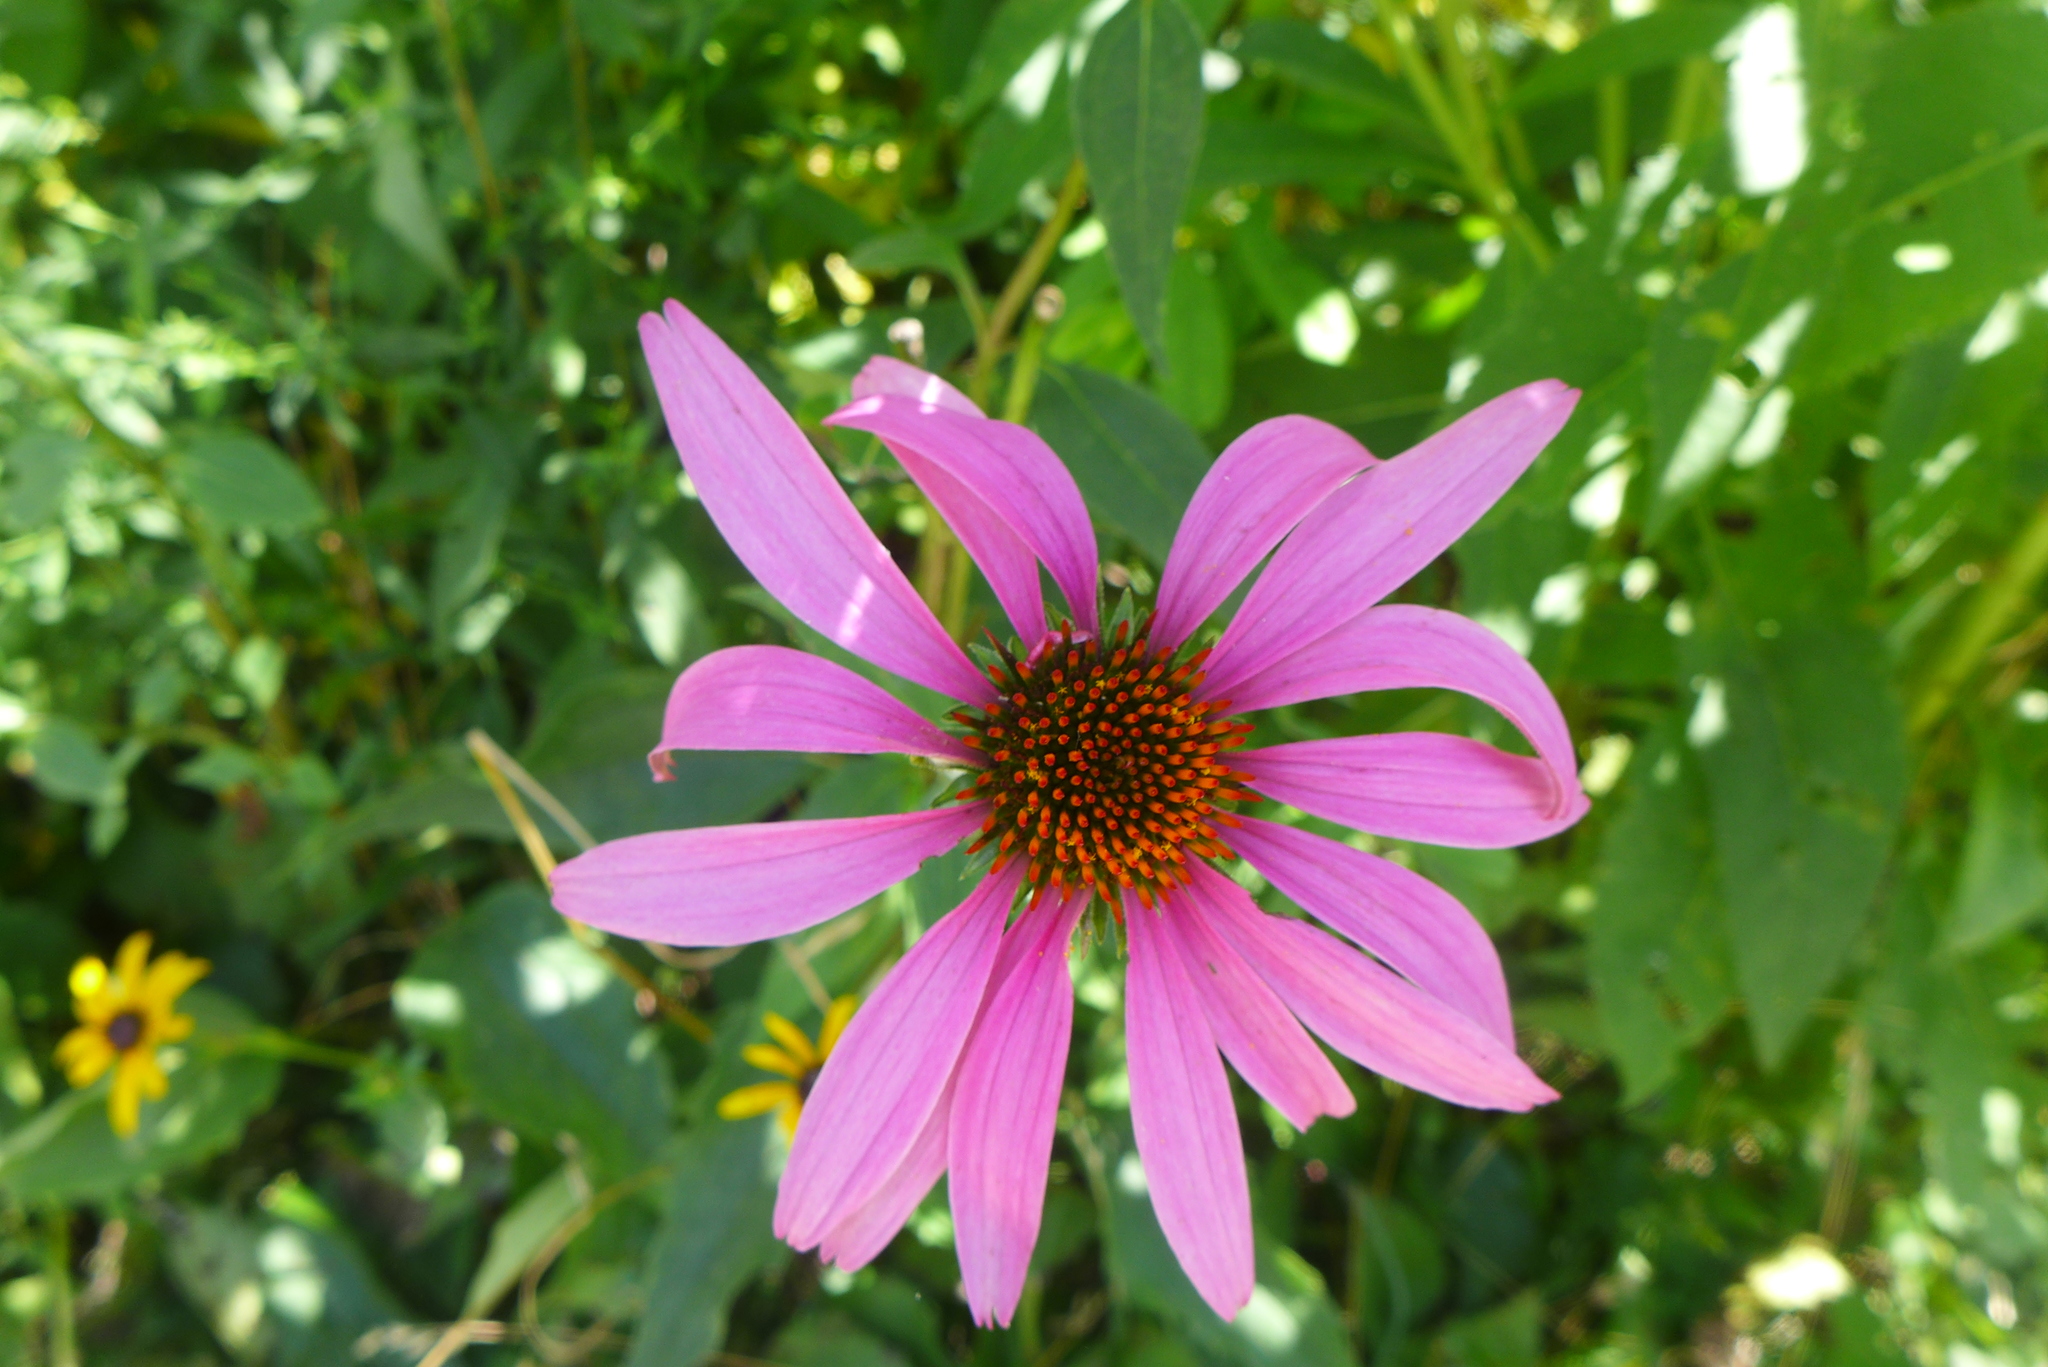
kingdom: Plantae
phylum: Tracheophyta
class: Magnoliopsida
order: Asterales
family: Asteraceae
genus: Echinacea
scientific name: Echinacea purpurea
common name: Broad-leaved purple coneflower
